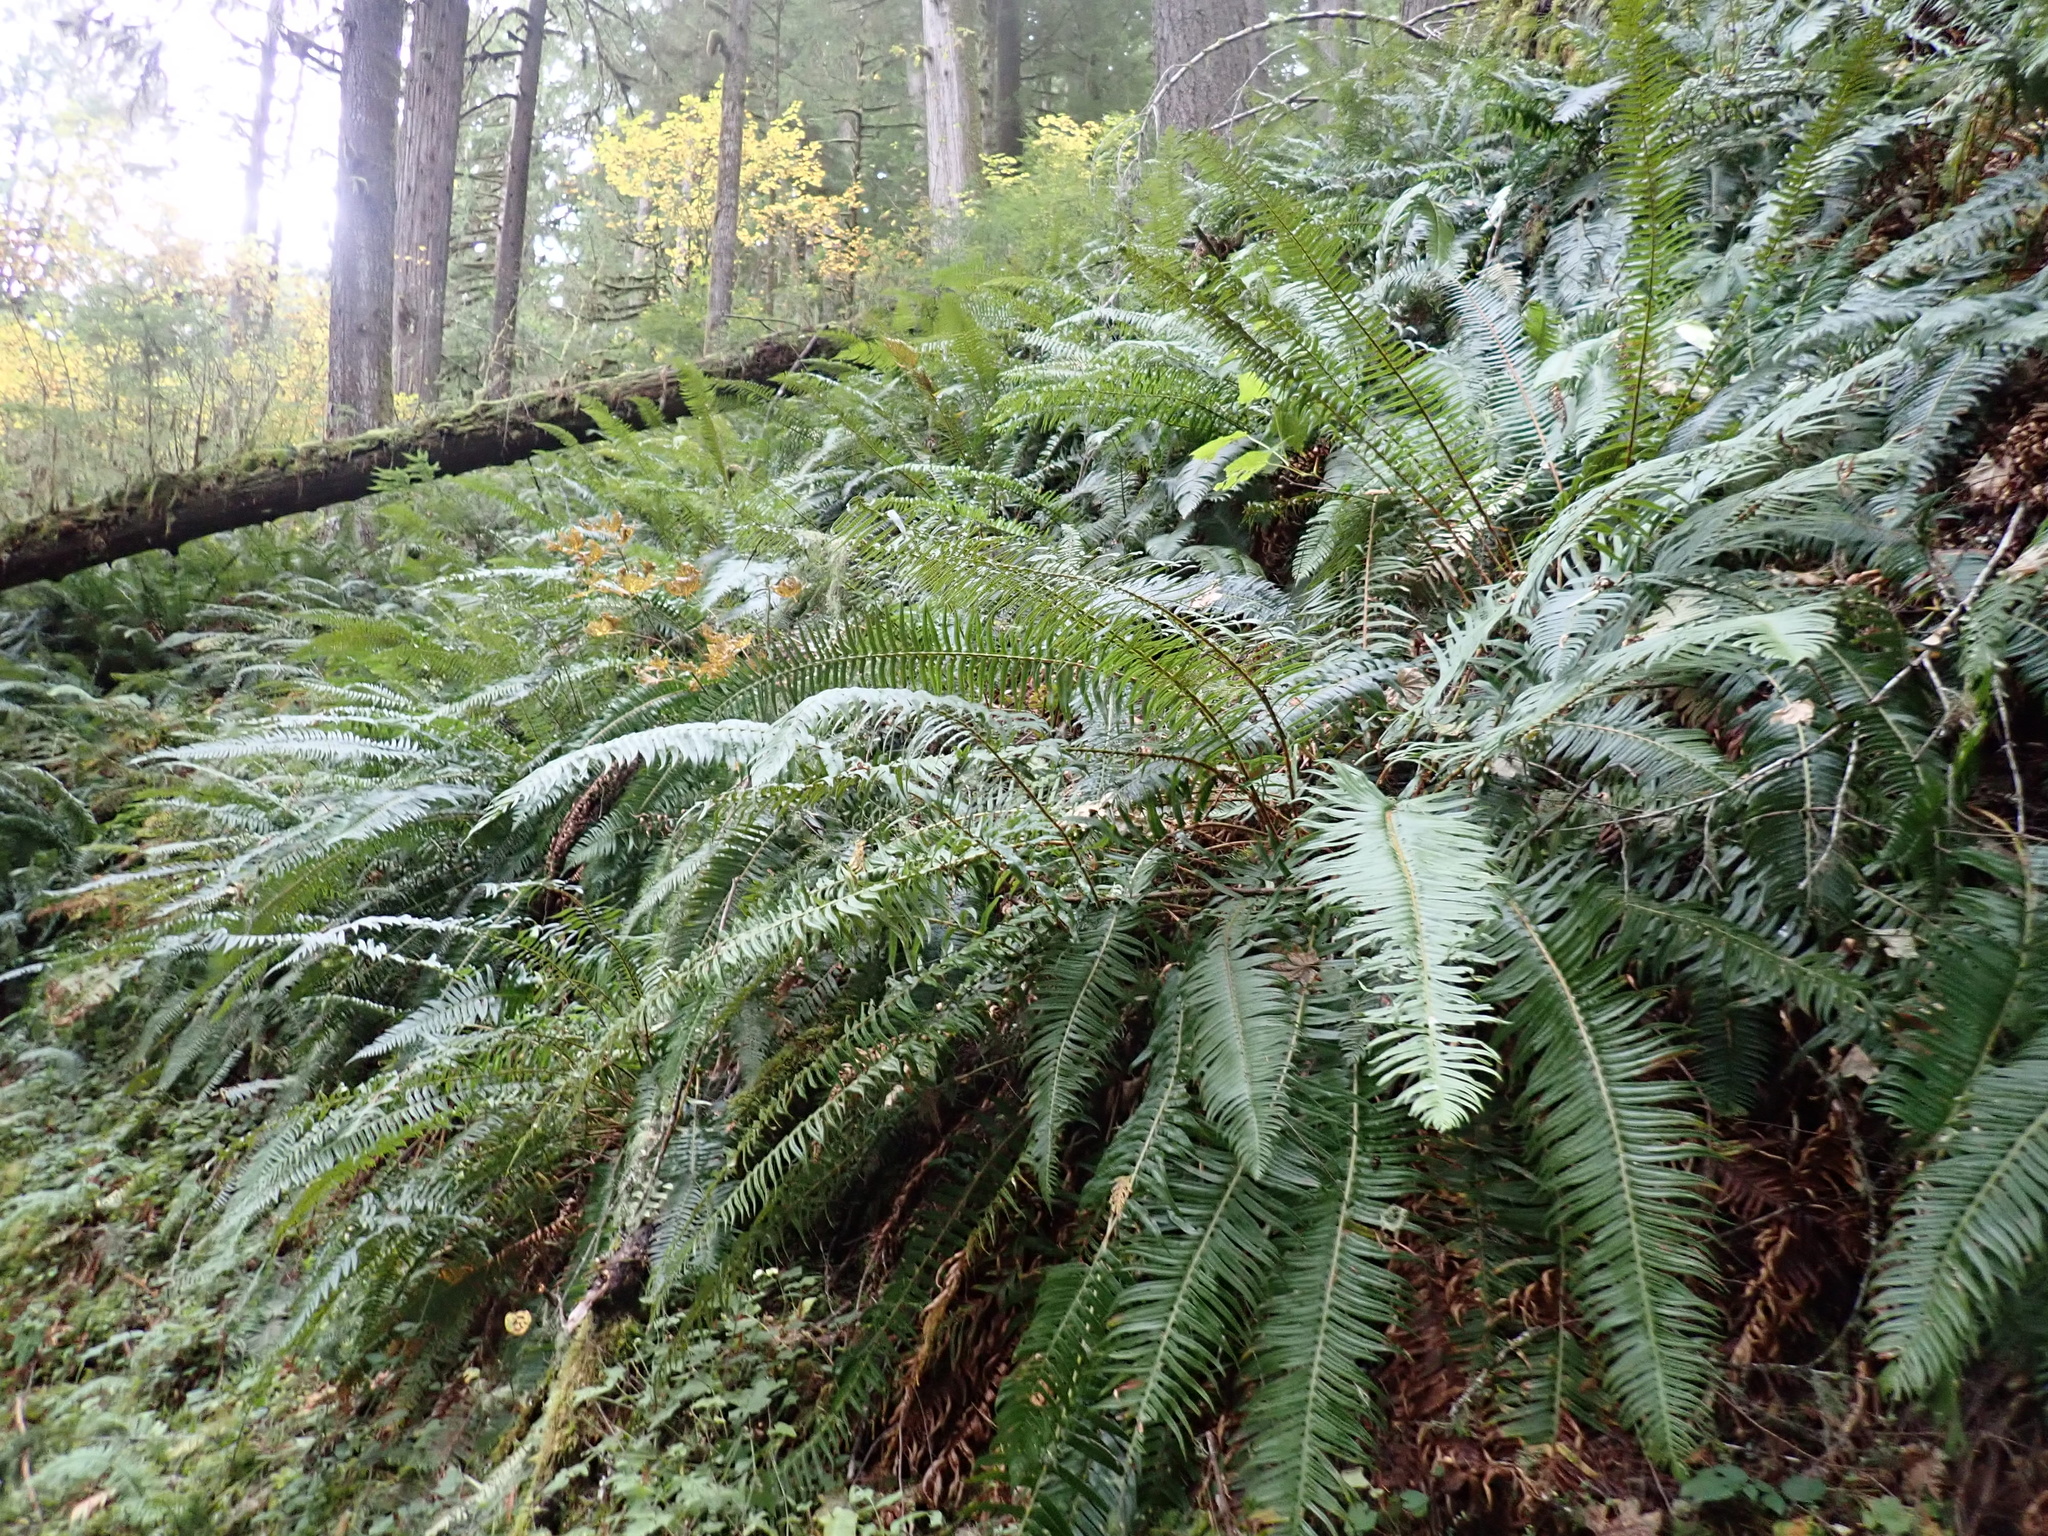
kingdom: Plantae
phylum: Tracheophyta
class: Polypodiopsida
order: Polypodiales
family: Dryopteridaceae
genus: Polystichum
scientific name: Polystichum munitum
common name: Western sword-fern
